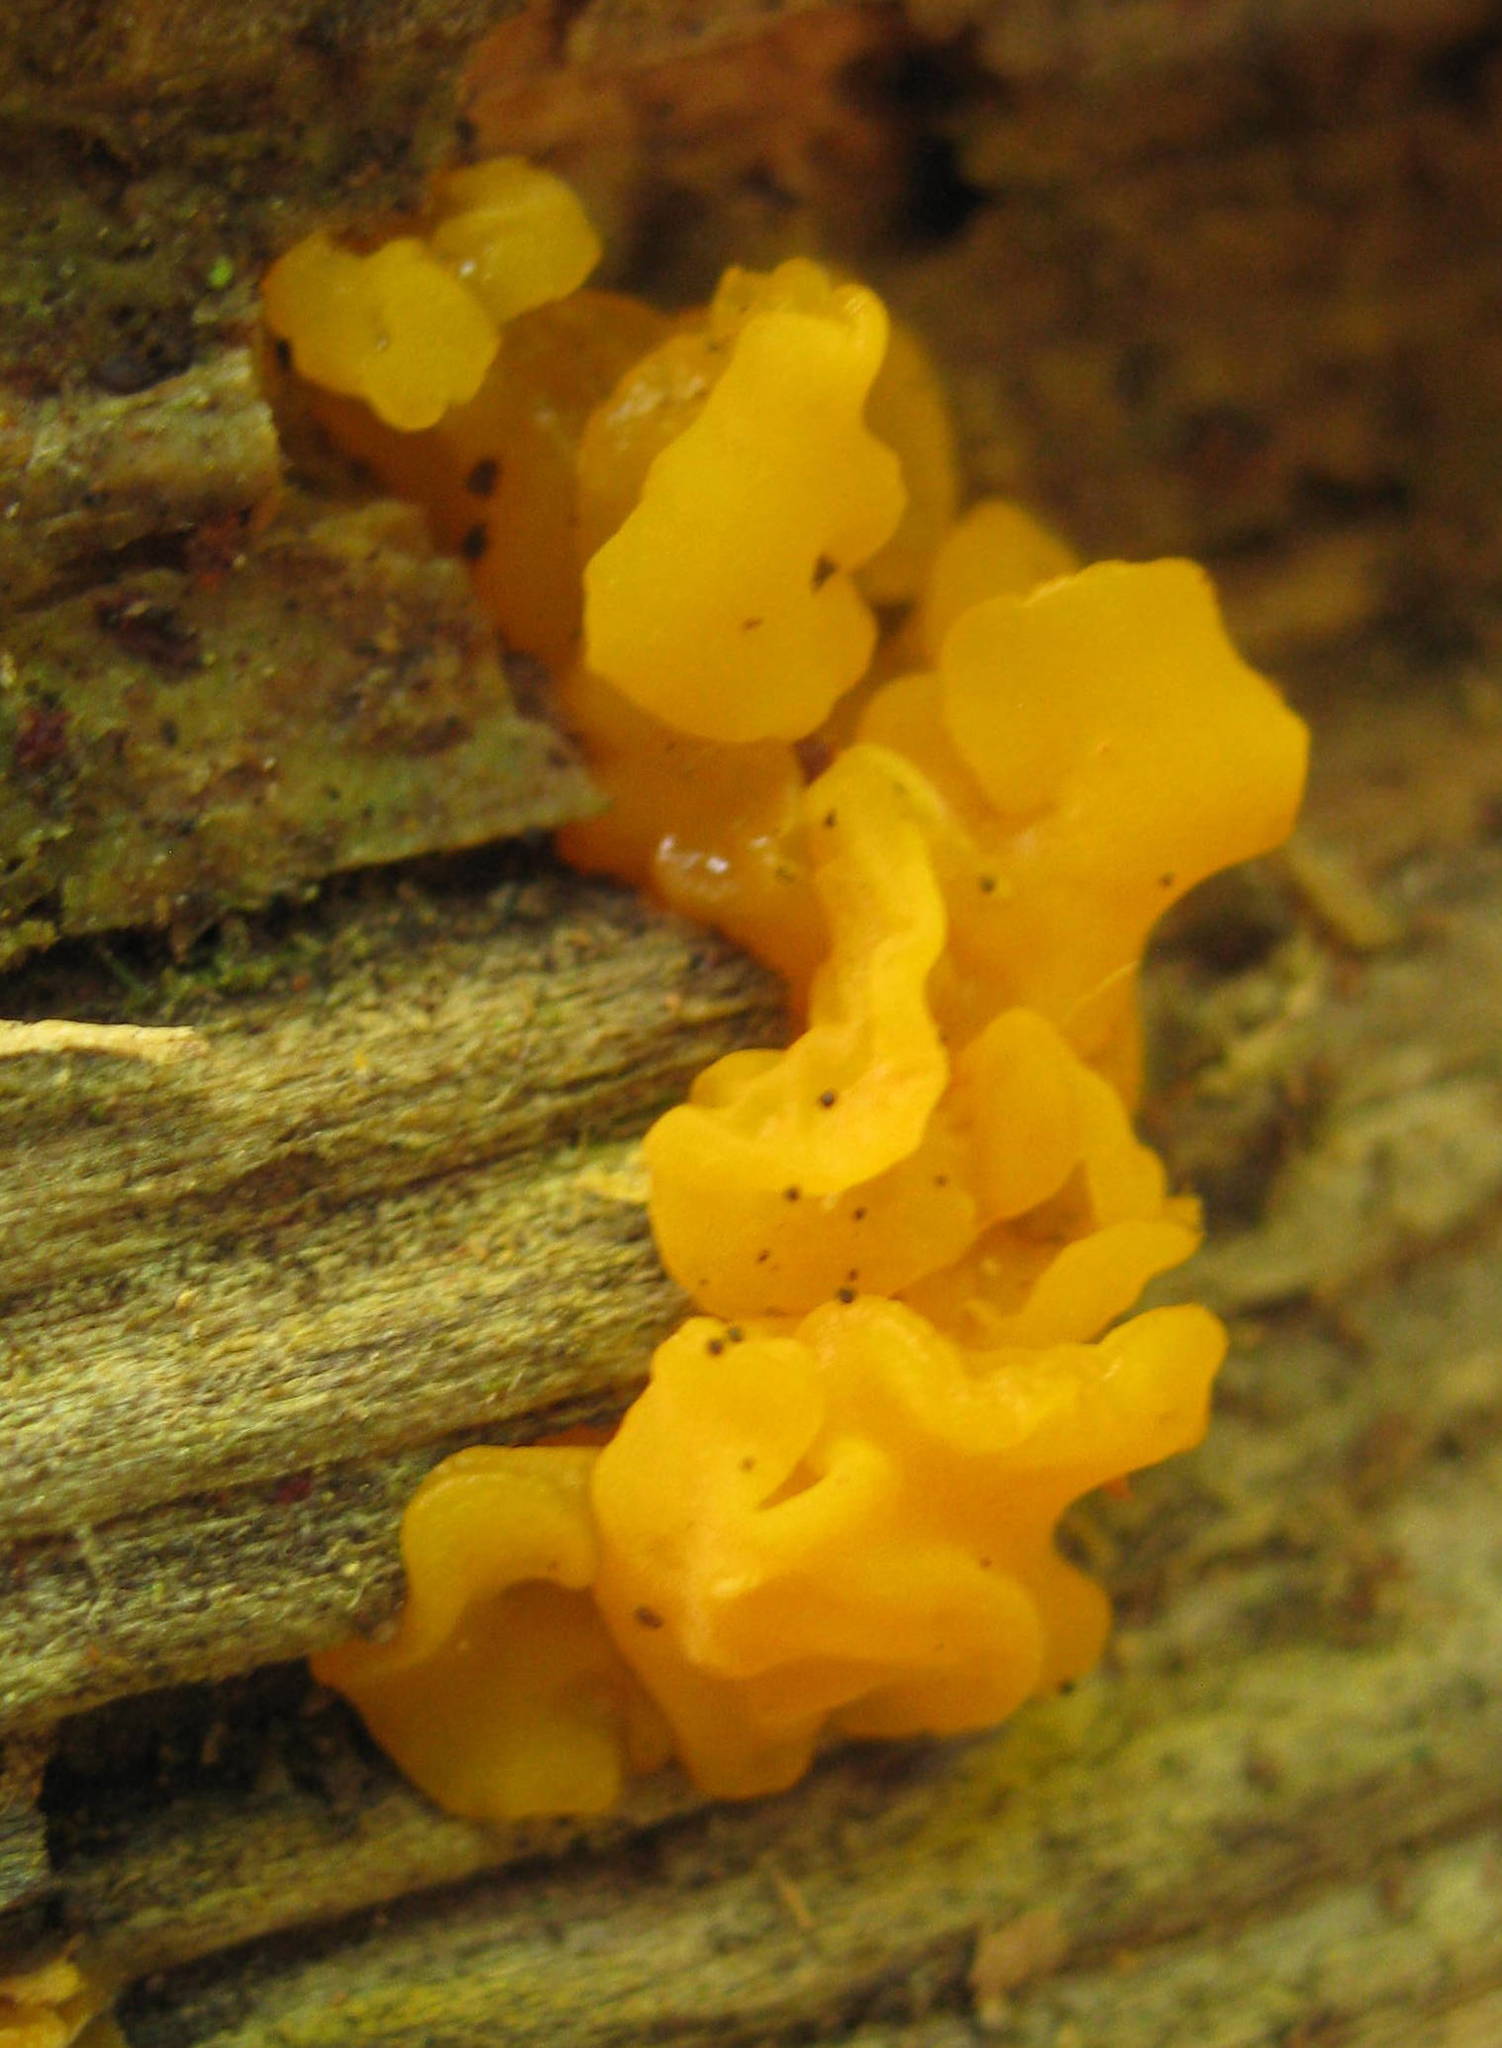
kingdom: Fungi
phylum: Basidiomycota
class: Dacrymycetes
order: Dacrymycetales
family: Dacrymycetaceae
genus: Dacrymyces
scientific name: Dacrymyces chrysospermus
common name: Orange jelly spot
